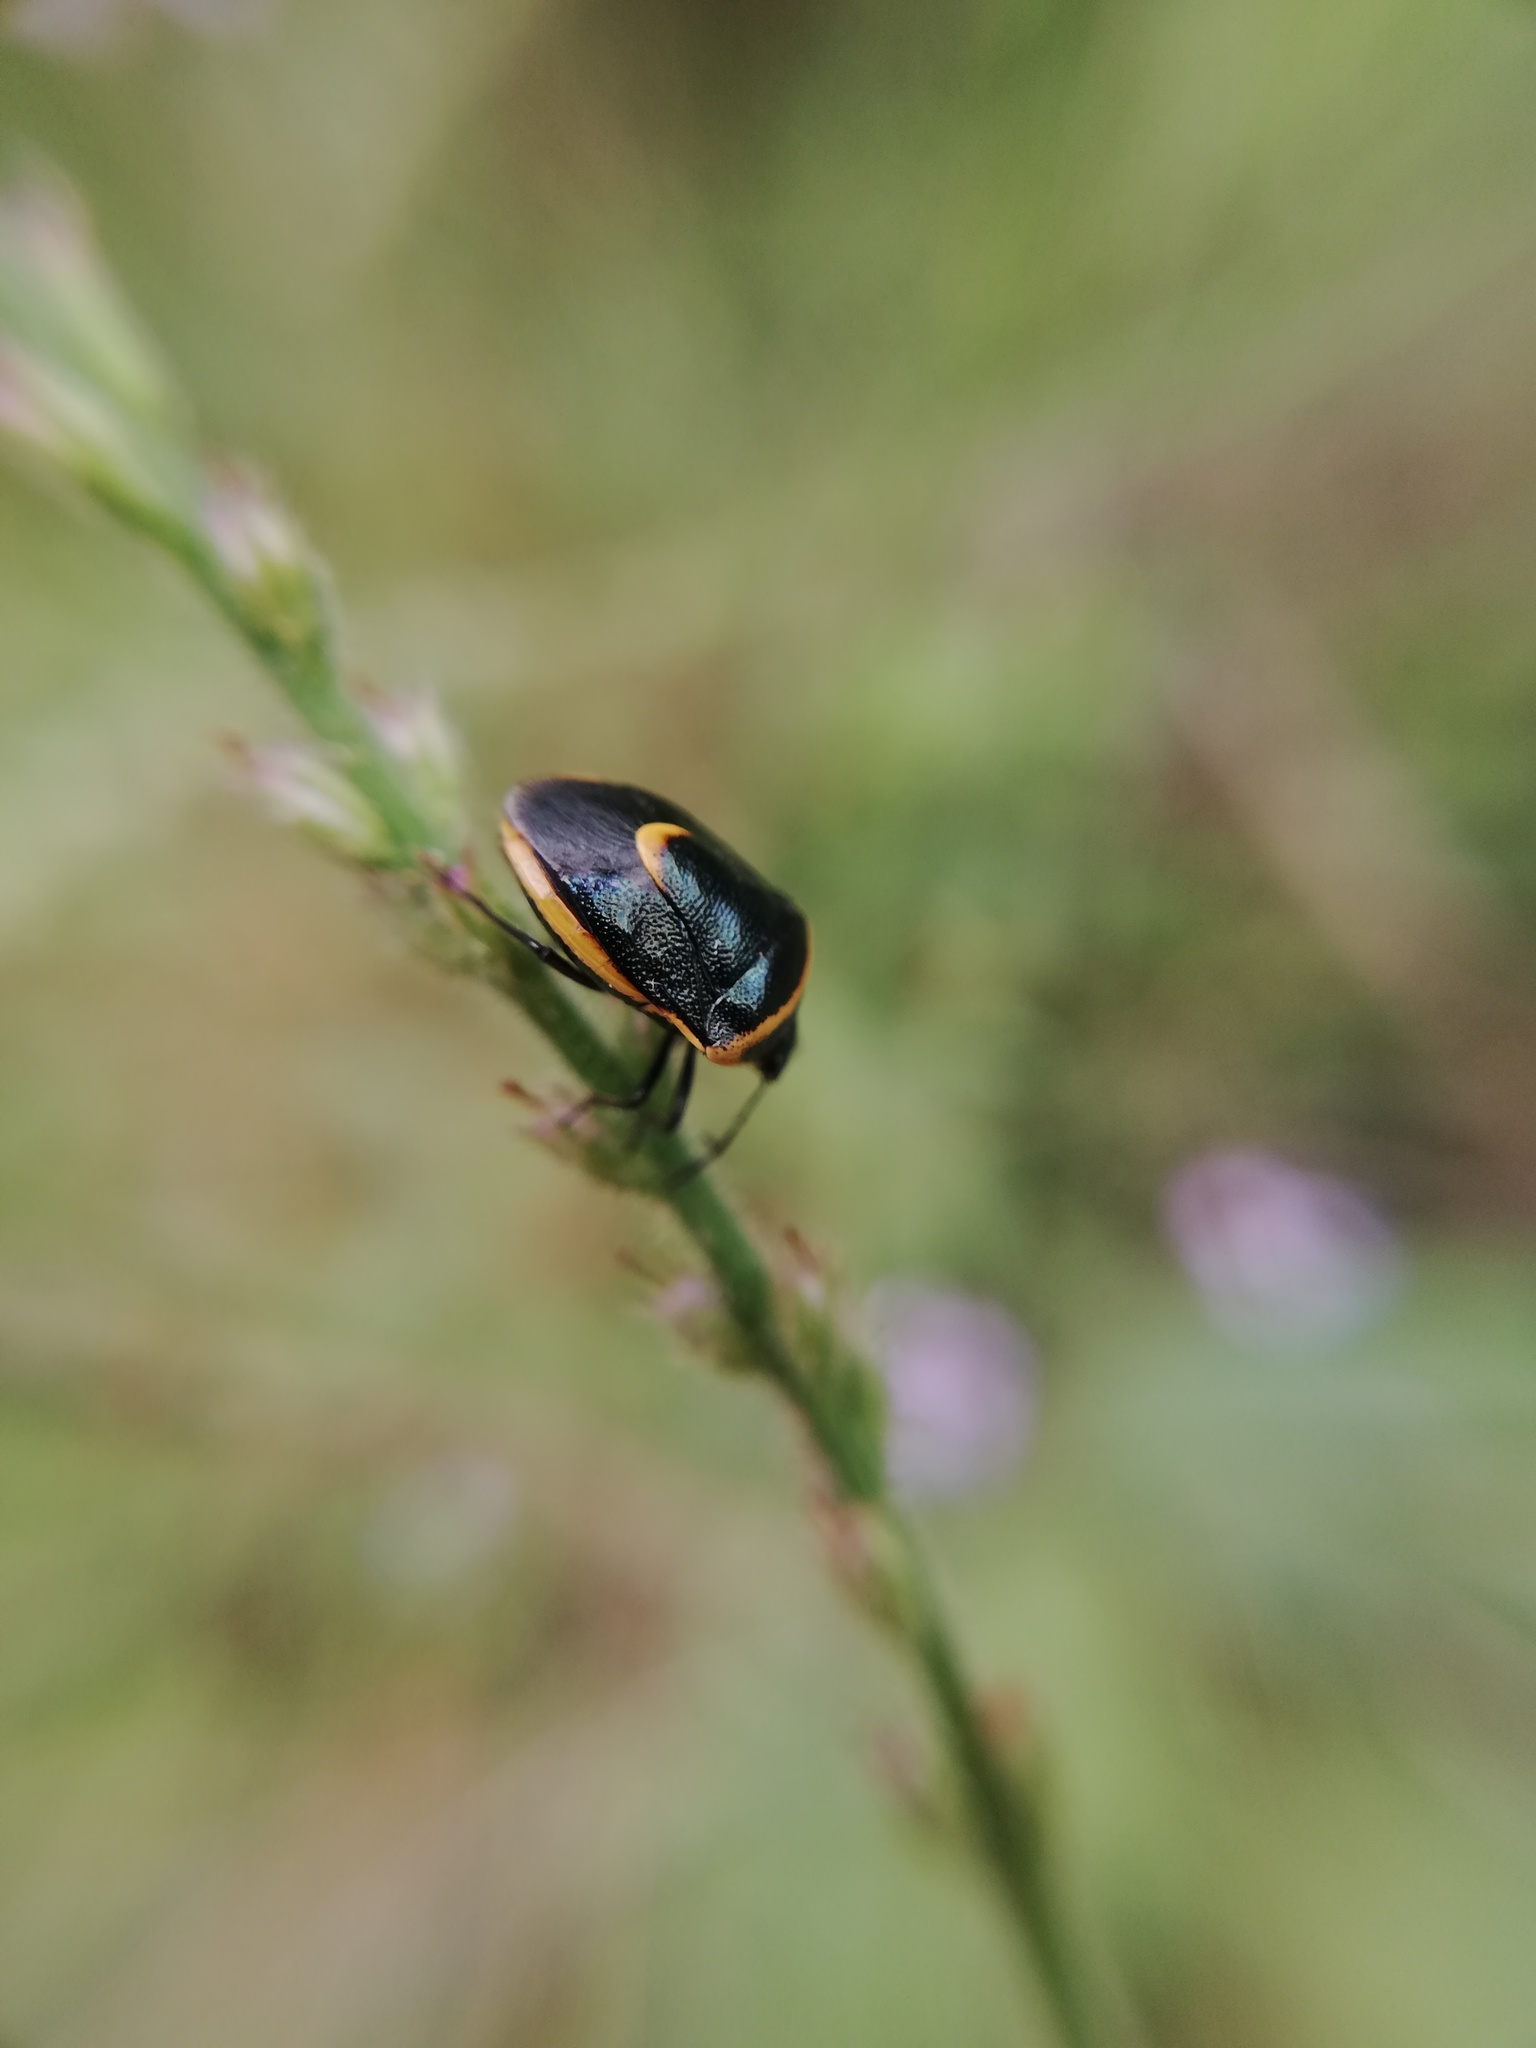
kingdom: Animalia
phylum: Arthropoda
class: Insecta
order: Hemiptera
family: Pentatomidae
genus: Cosmopepla
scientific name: Cosmopepla decorata
